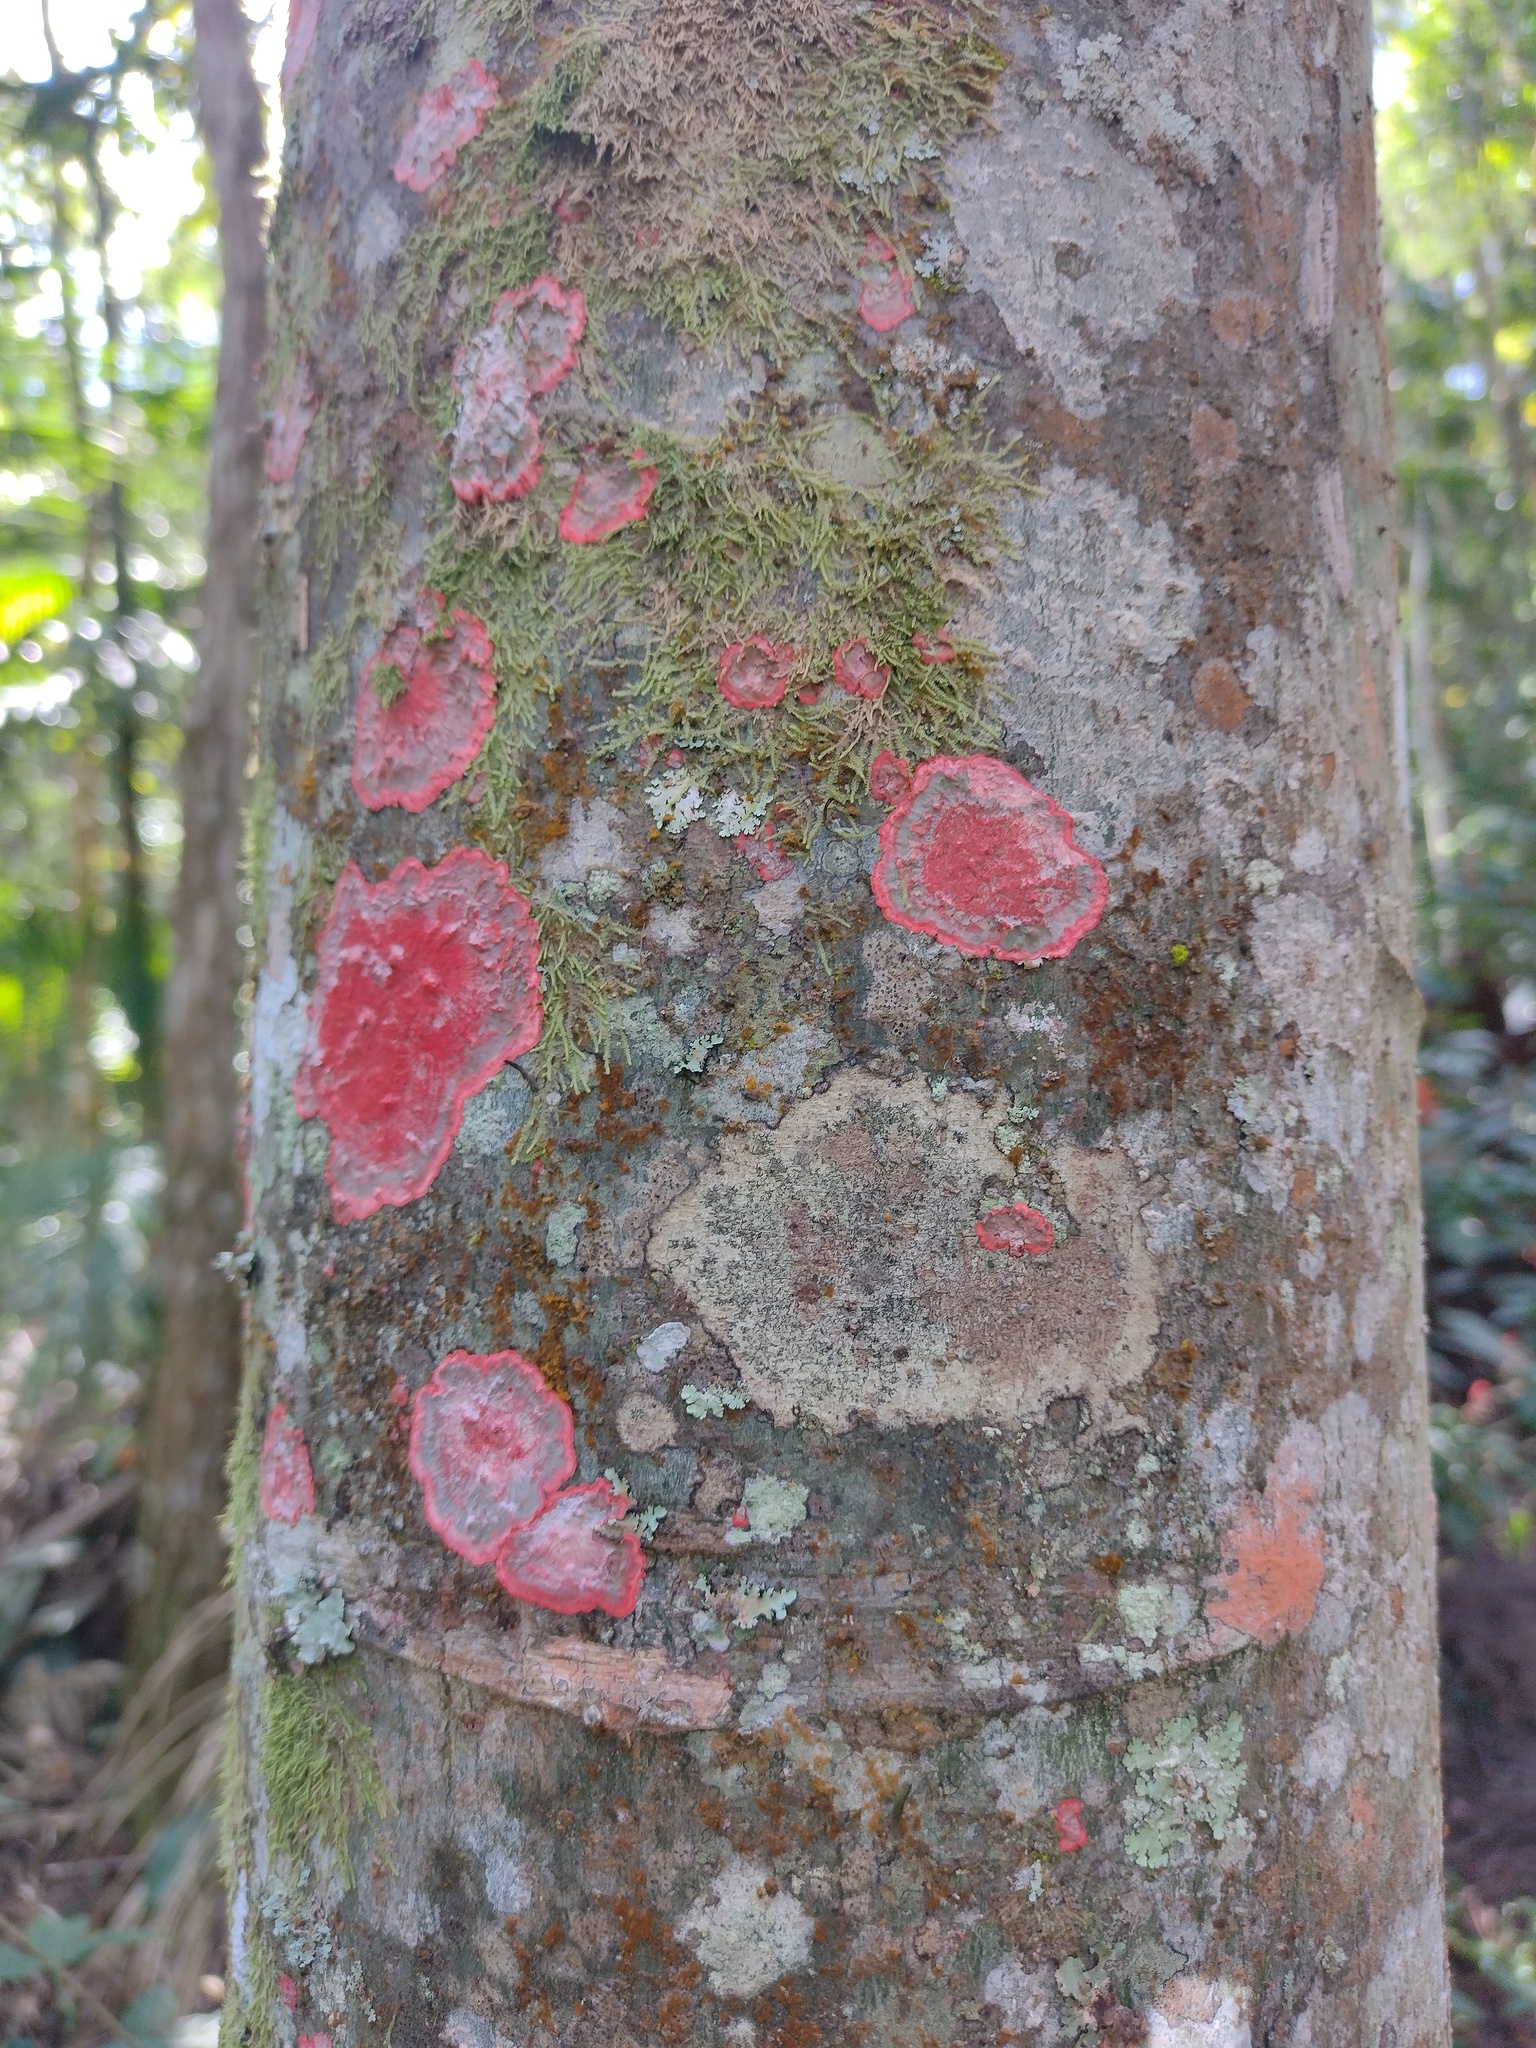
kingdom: Fungi
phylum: Ascomycota
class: Arthoniomycetes
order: Arthoniales
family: Arthoniaceae
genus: Herpothallon
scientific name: Herpothallon rubrocinctum
